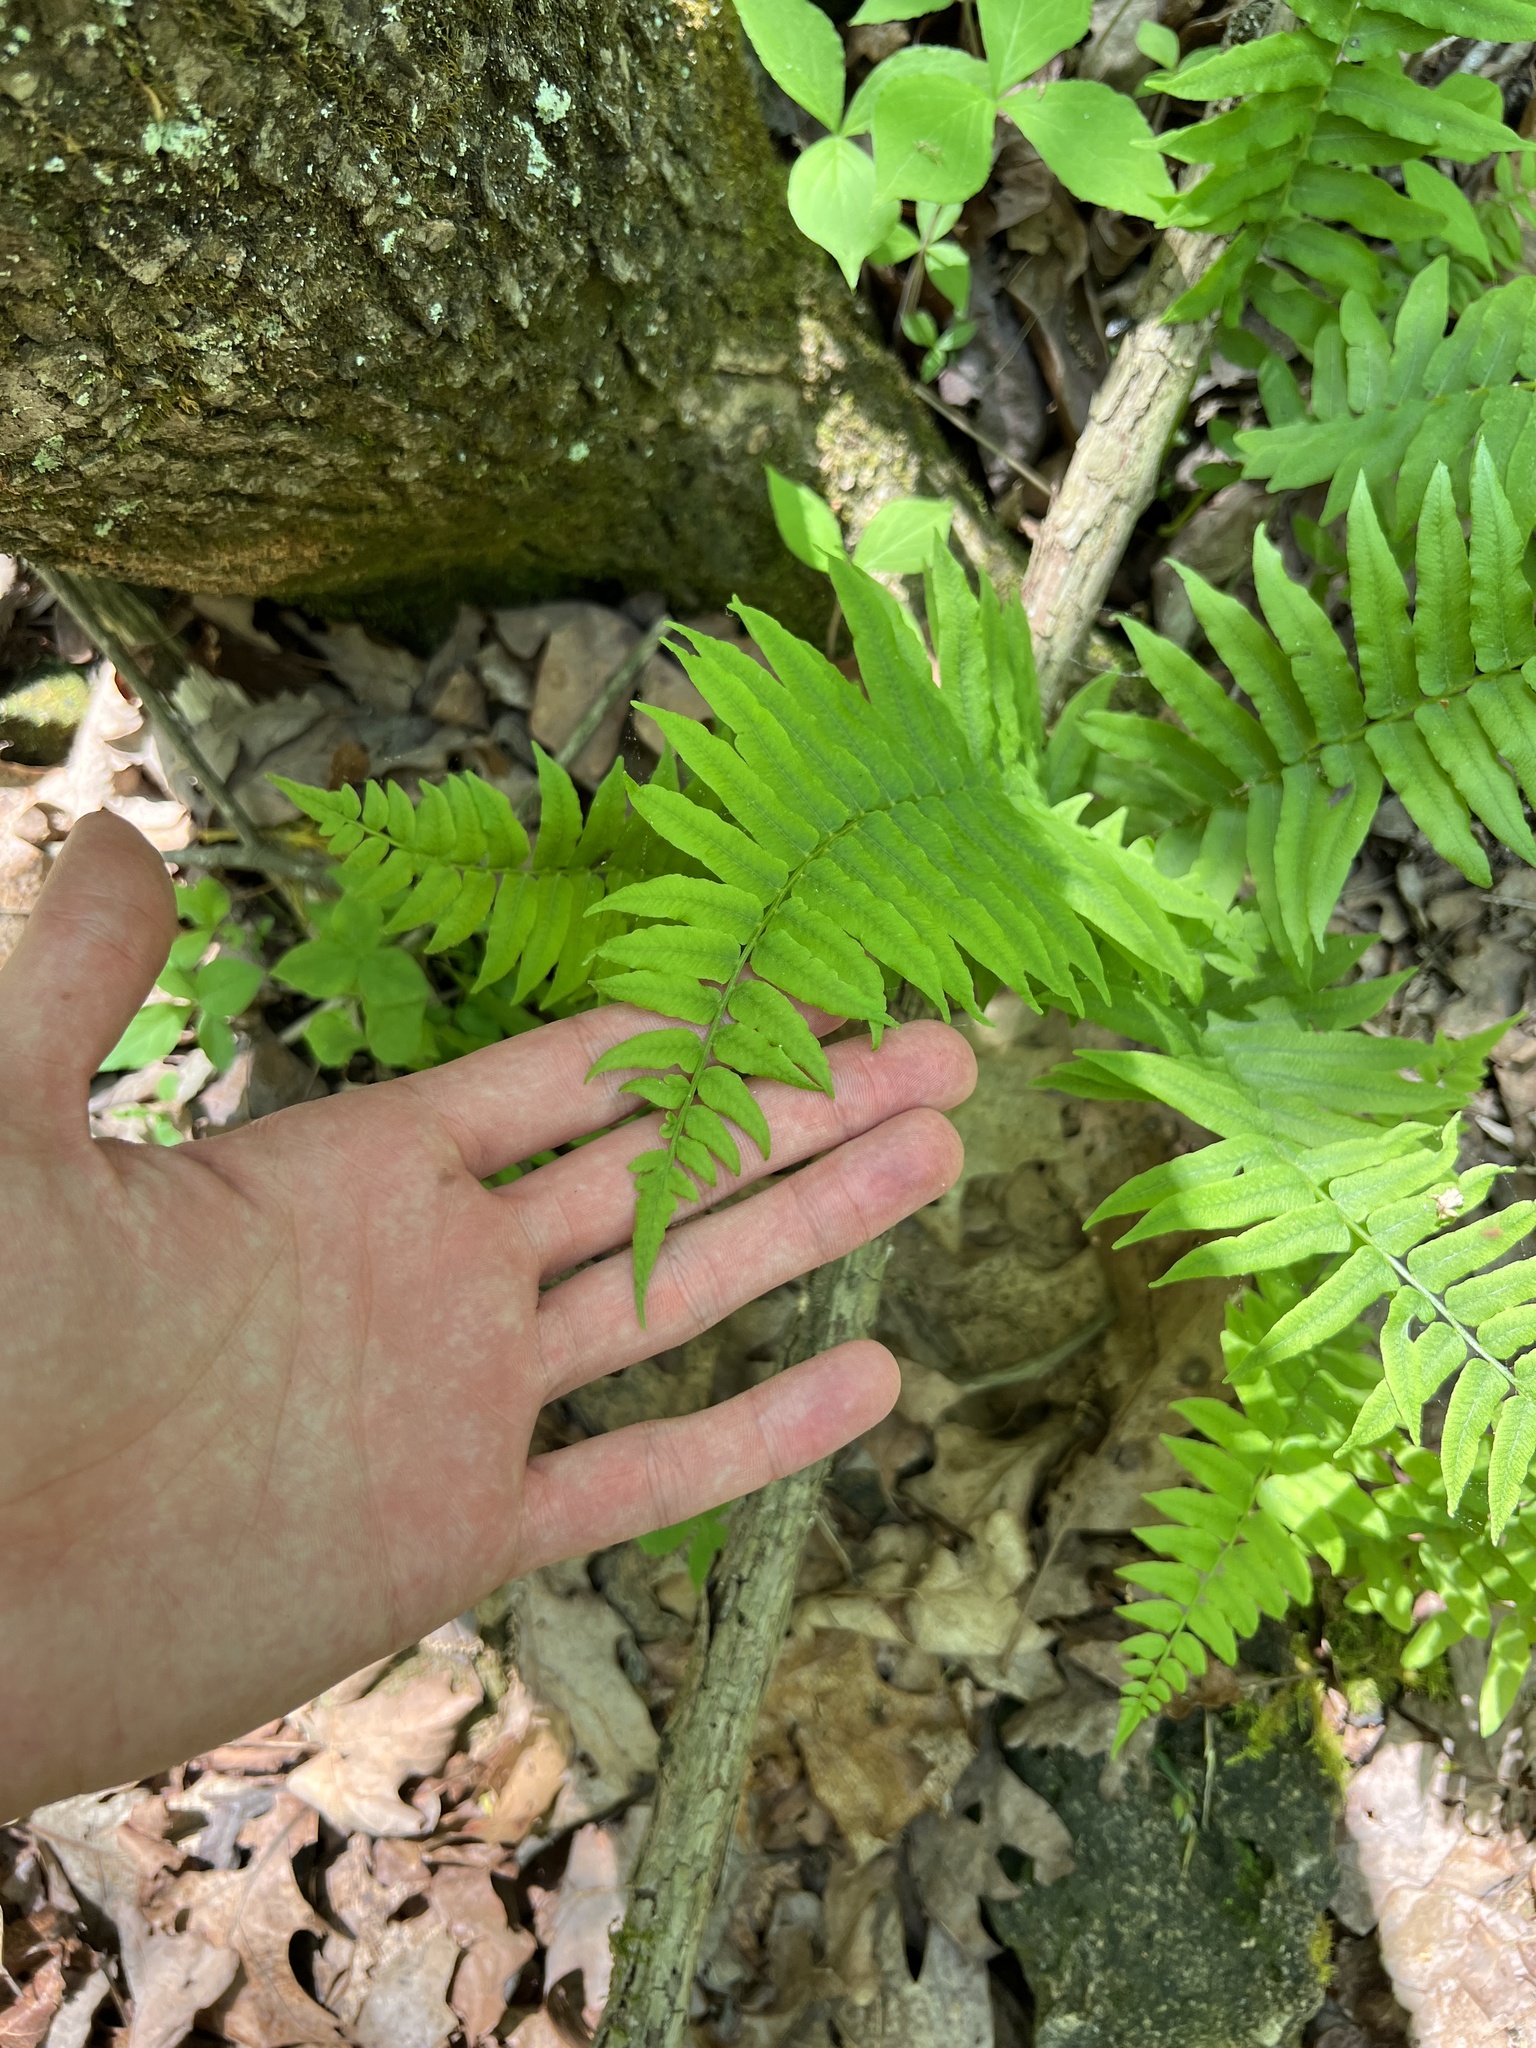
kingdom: Plantae
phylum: Tracheophyta
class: Polypodiopsida
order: Polypodiales
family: Diplaziopsidaceae
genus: Homalosorus
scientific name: Homalosorus pycnocarpos
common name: Glade fern
